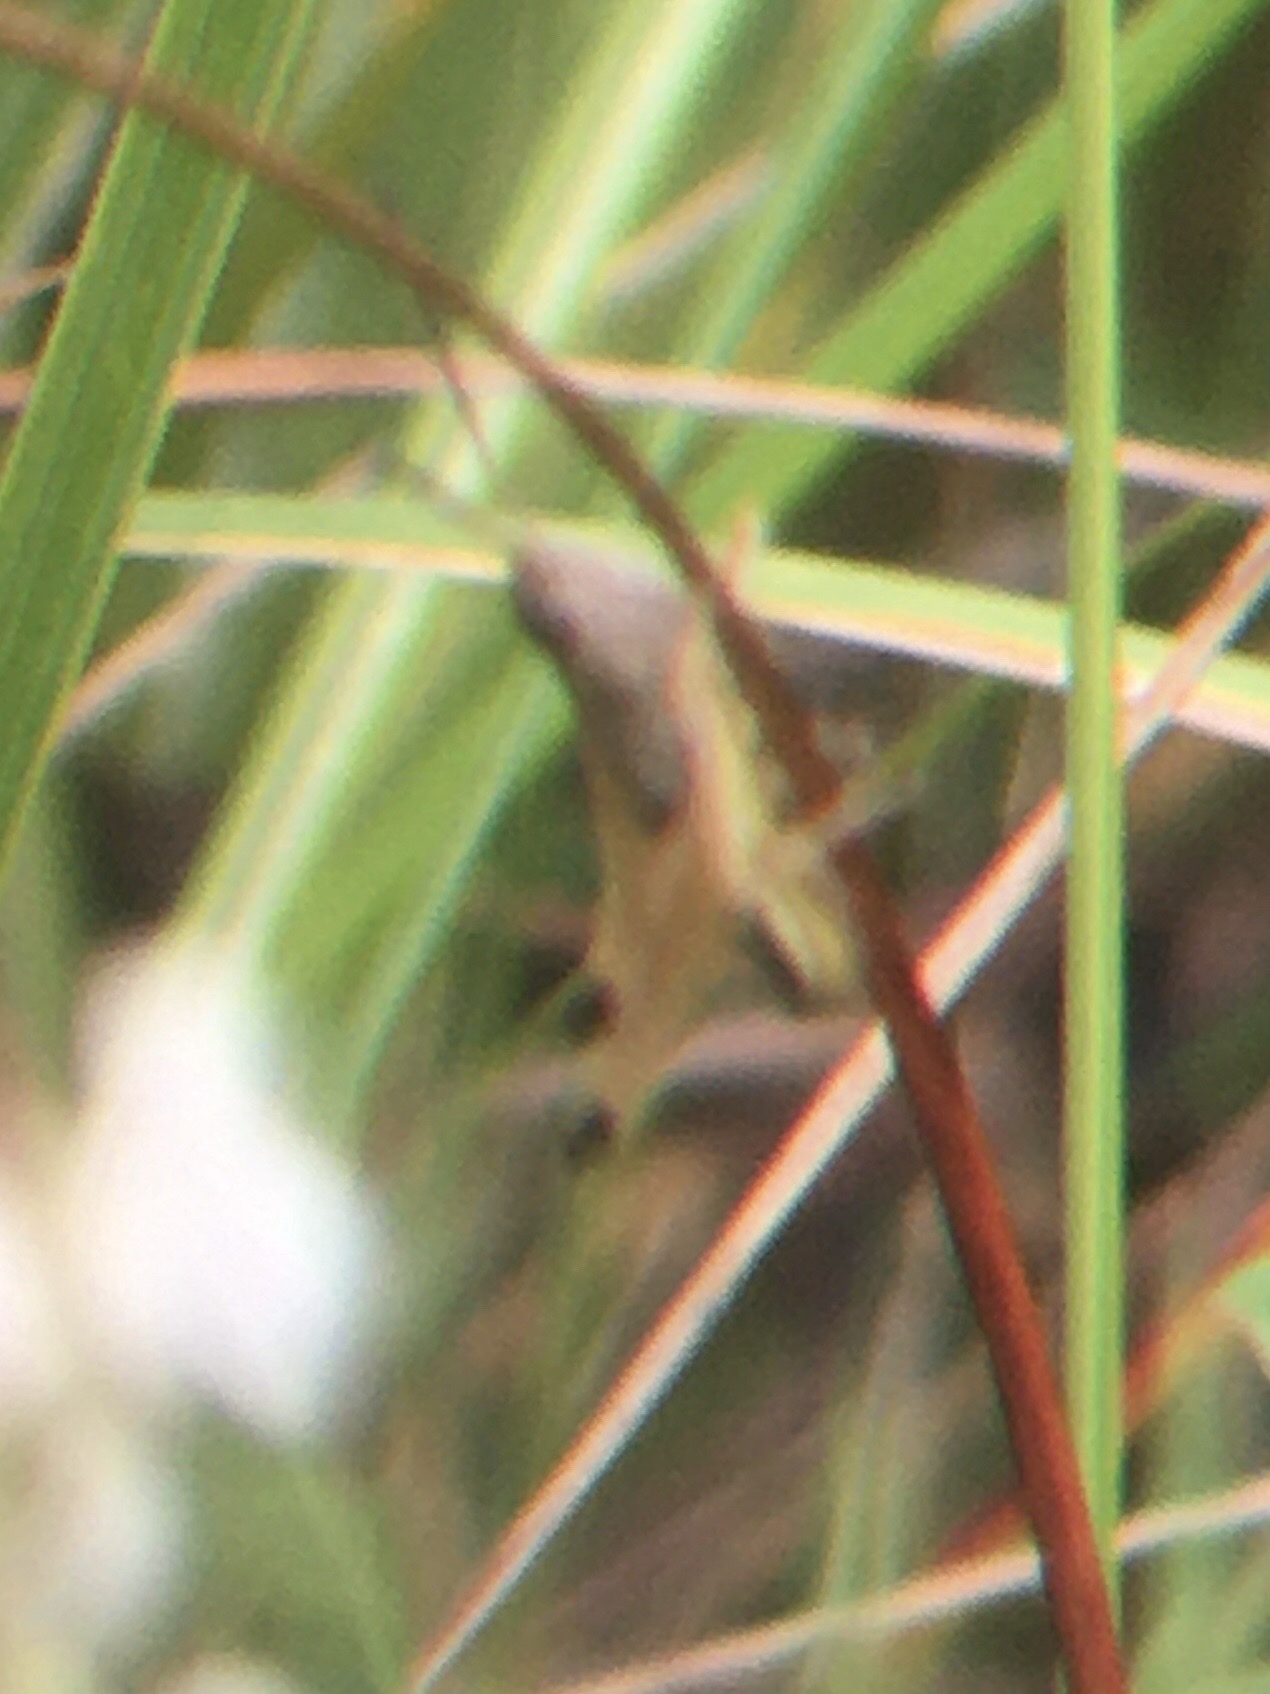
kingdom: Animalia
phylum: Arthropoda
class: Insecta
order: Orthoptera
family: Acrididae
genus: Pseudochorthippus
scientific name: Pseudochorthippus curtipennis
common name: Marsh meadow grasshopper
